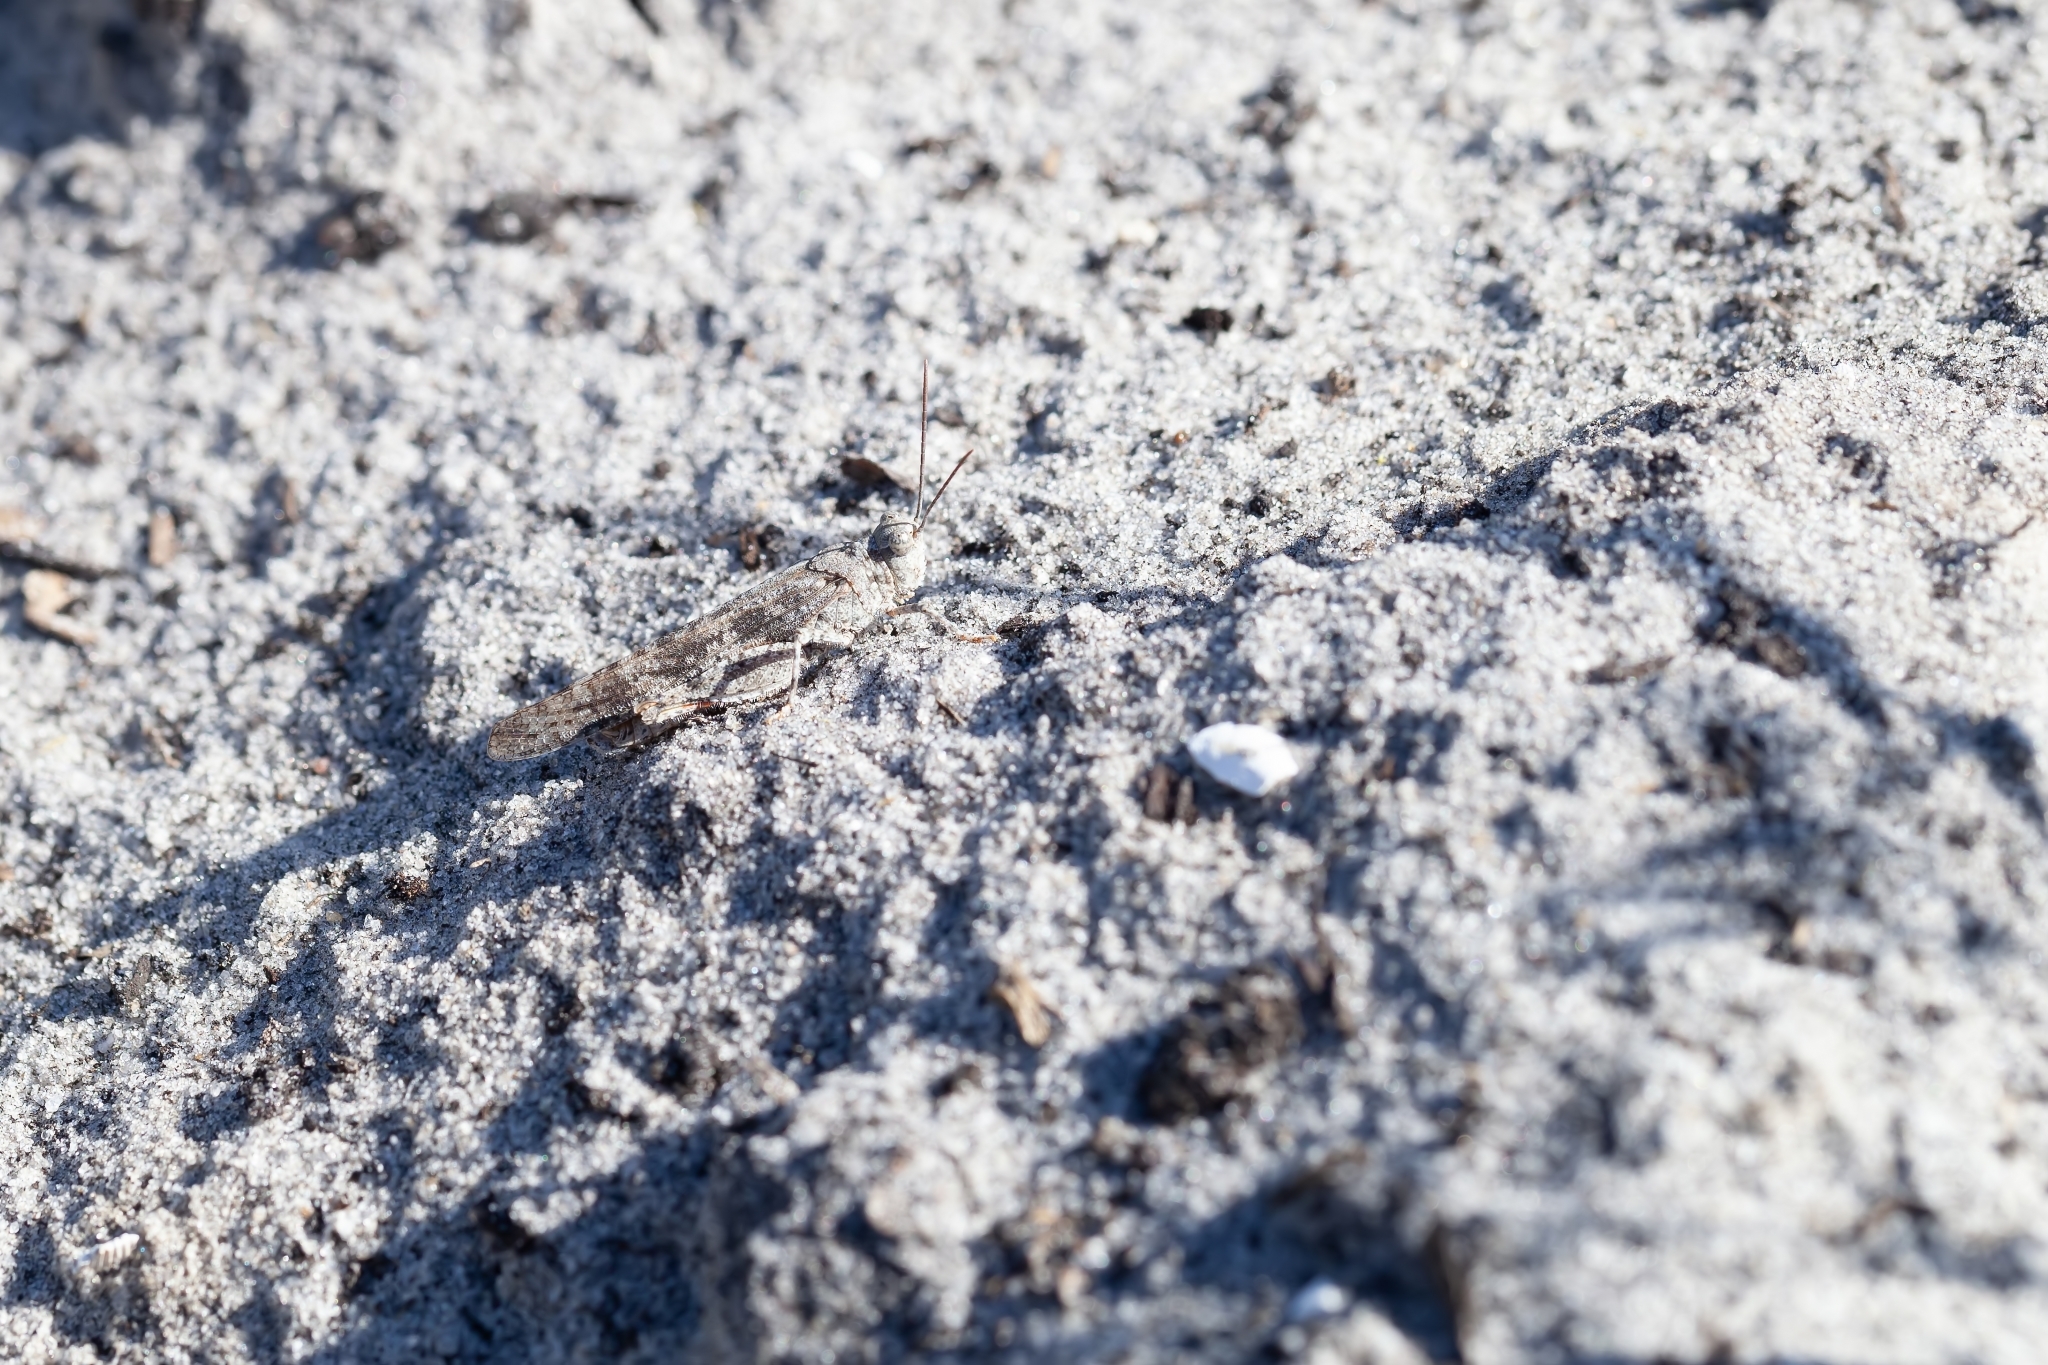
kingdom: Animalia
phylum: Arthropoda
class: Insecta
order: Orthoptera
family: Acrididae
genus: Trimerotropis
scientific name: Trimerotropis maritima
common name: Seaside locust
